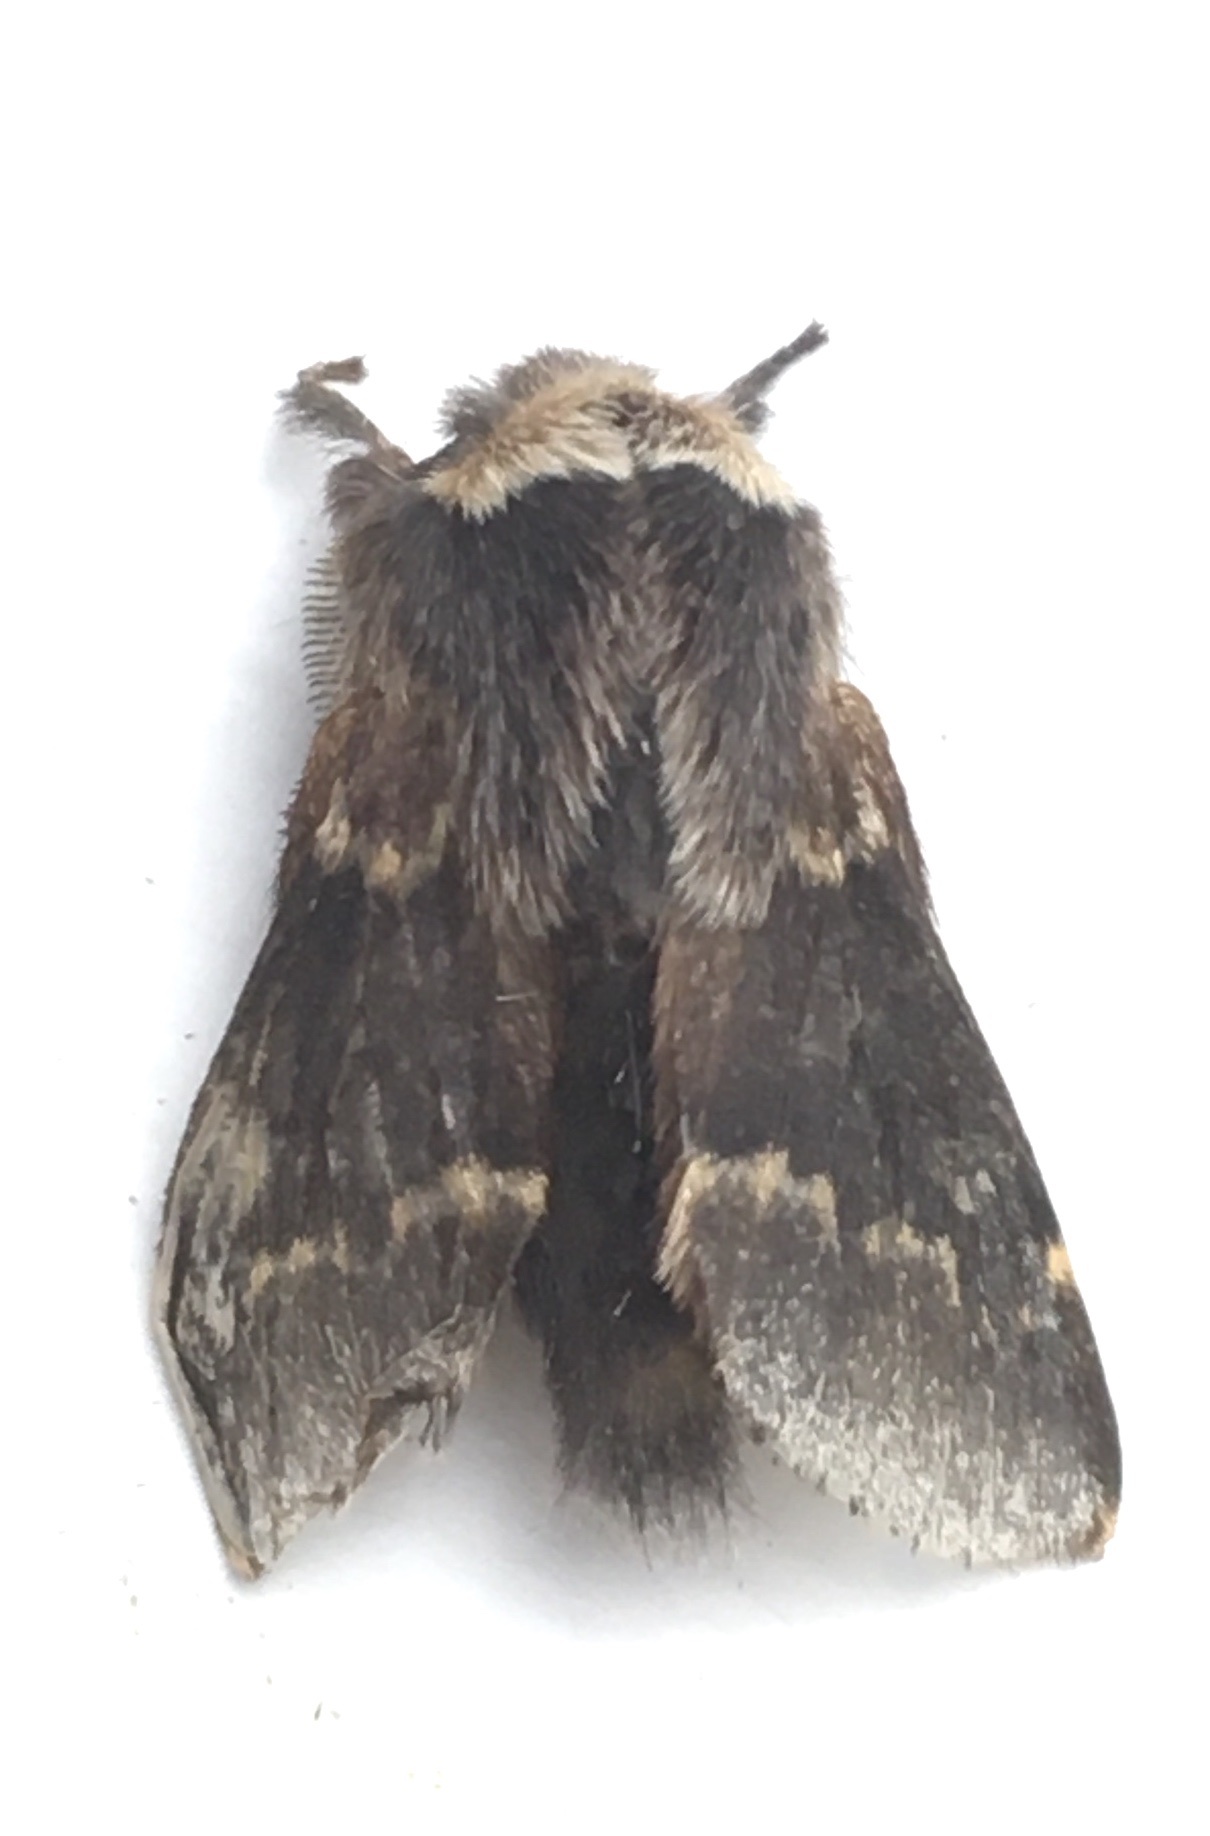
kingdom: Animalia
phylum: Arthropoda
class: Insecta
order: Lepidoptera
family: Lasiocampidae
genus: Poecilocampa
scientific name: Poecilocampa populi
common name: December moth
